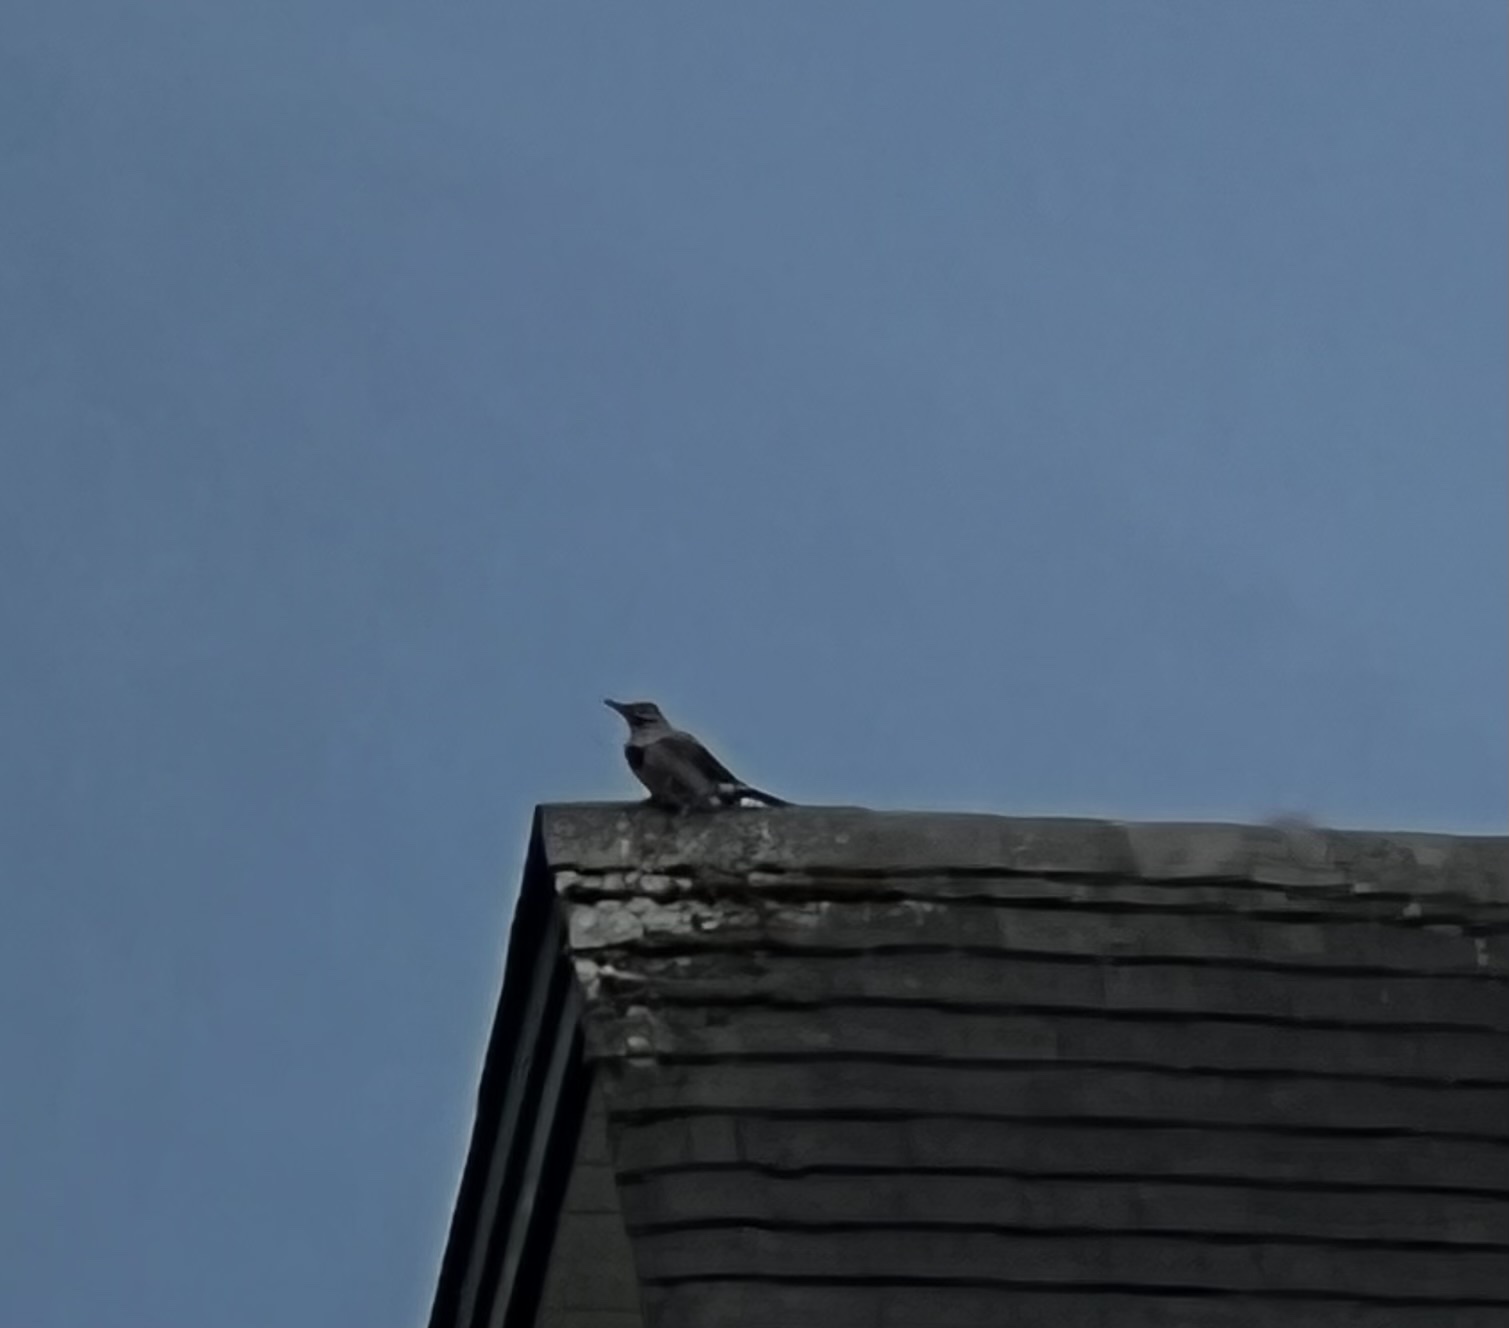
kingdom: Animalia
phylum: Chordata
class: Aves
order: Piciformes
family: Picidae
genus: Colaptes
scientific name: Colaptes auratus
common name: Northern flicker
